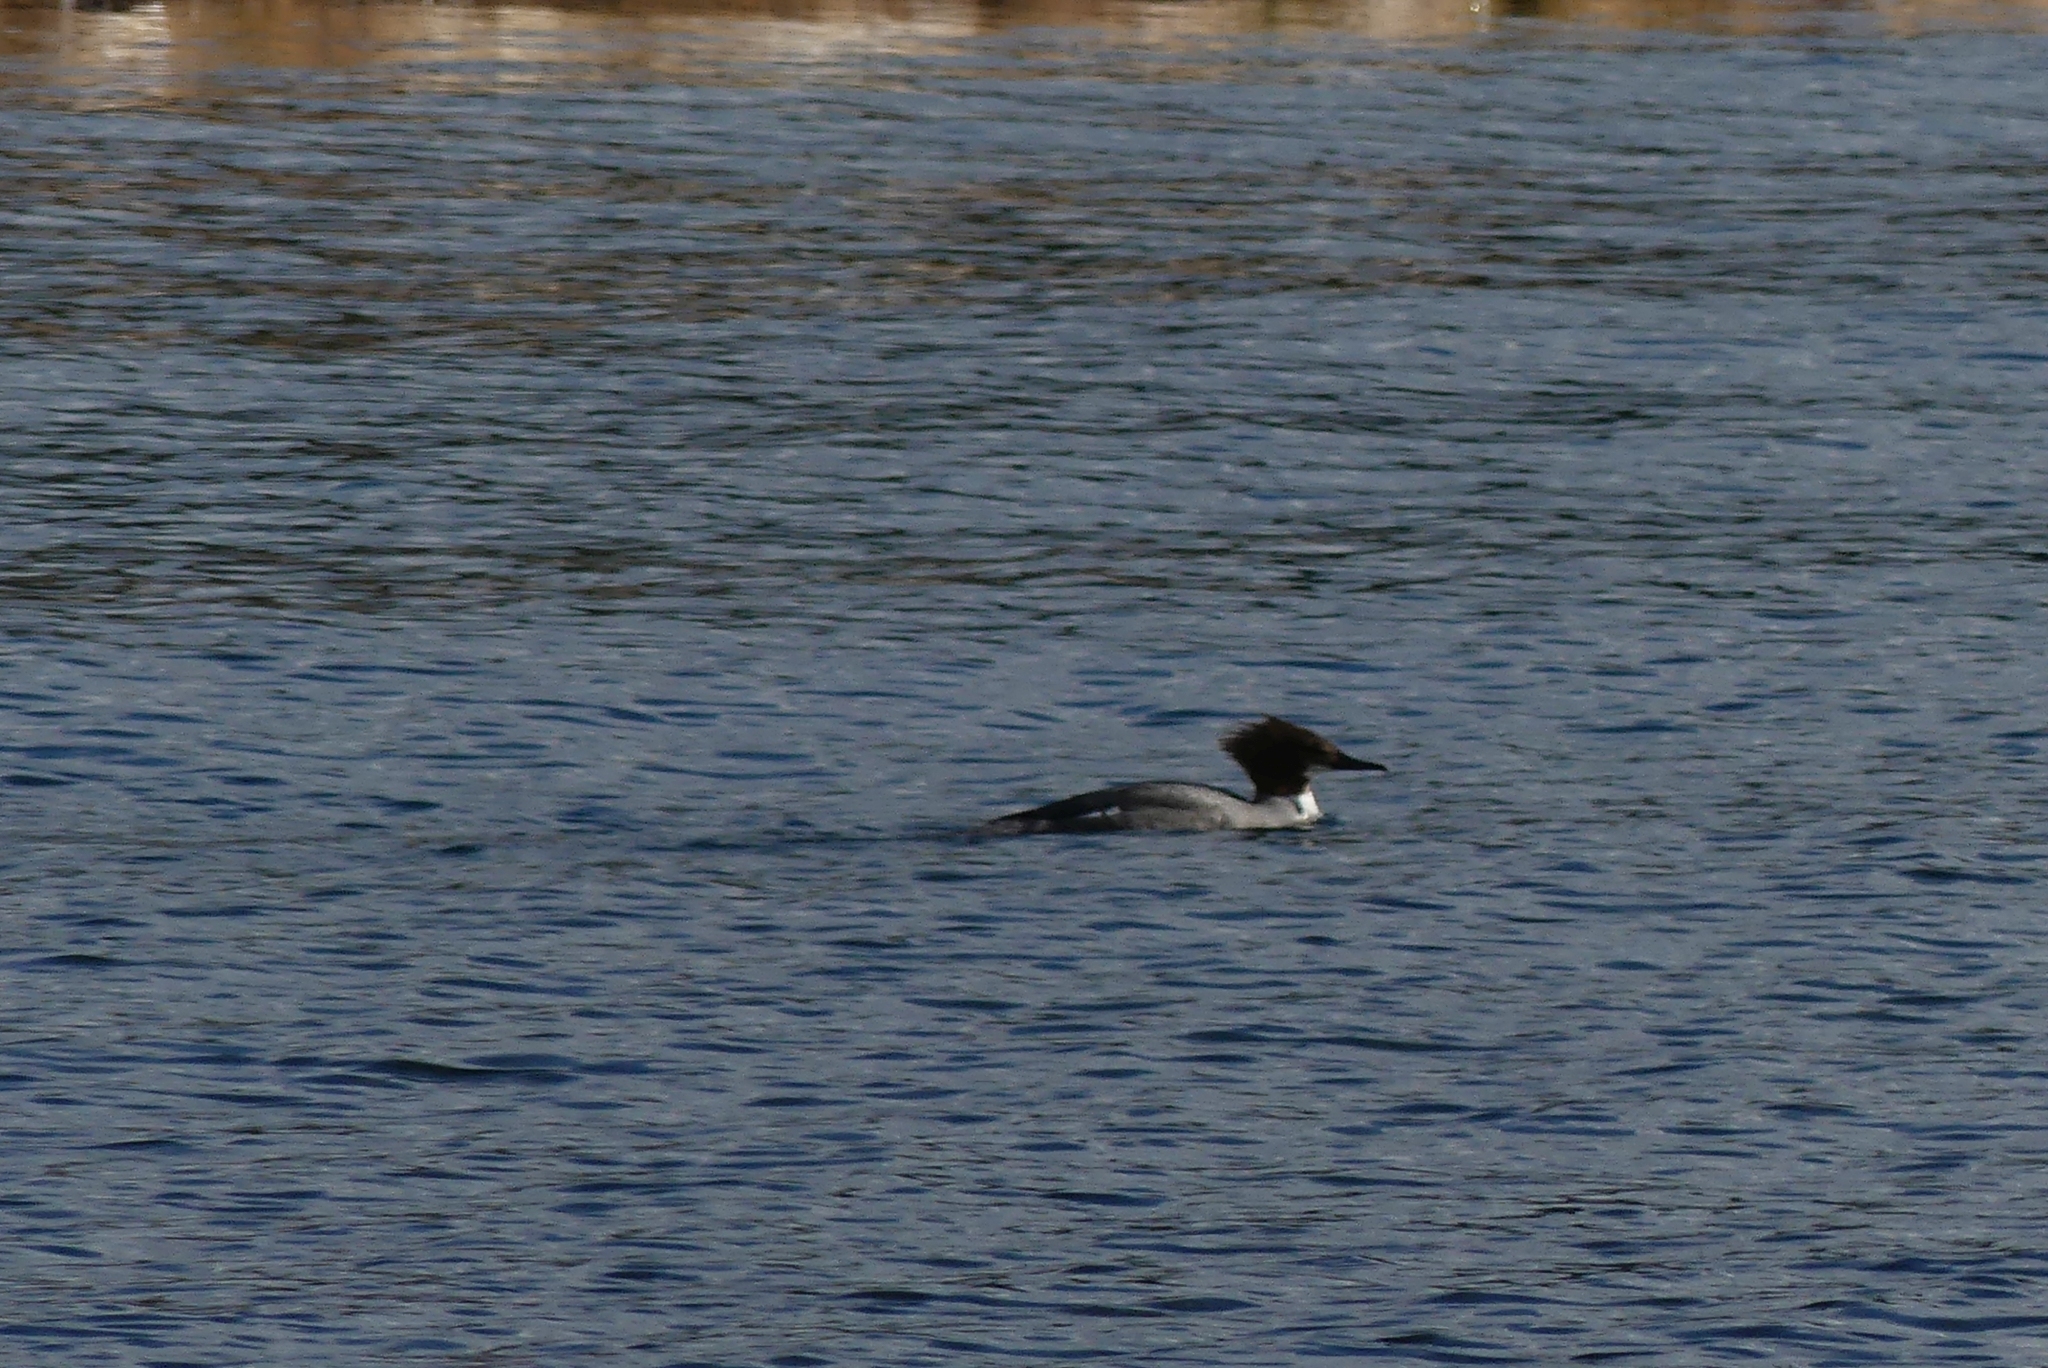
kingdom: Animalia
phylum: Chordata
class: Aves
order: Anseriformes
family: Anatidae
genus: Mergus
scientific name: Mergus merganser
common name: Common merganser
